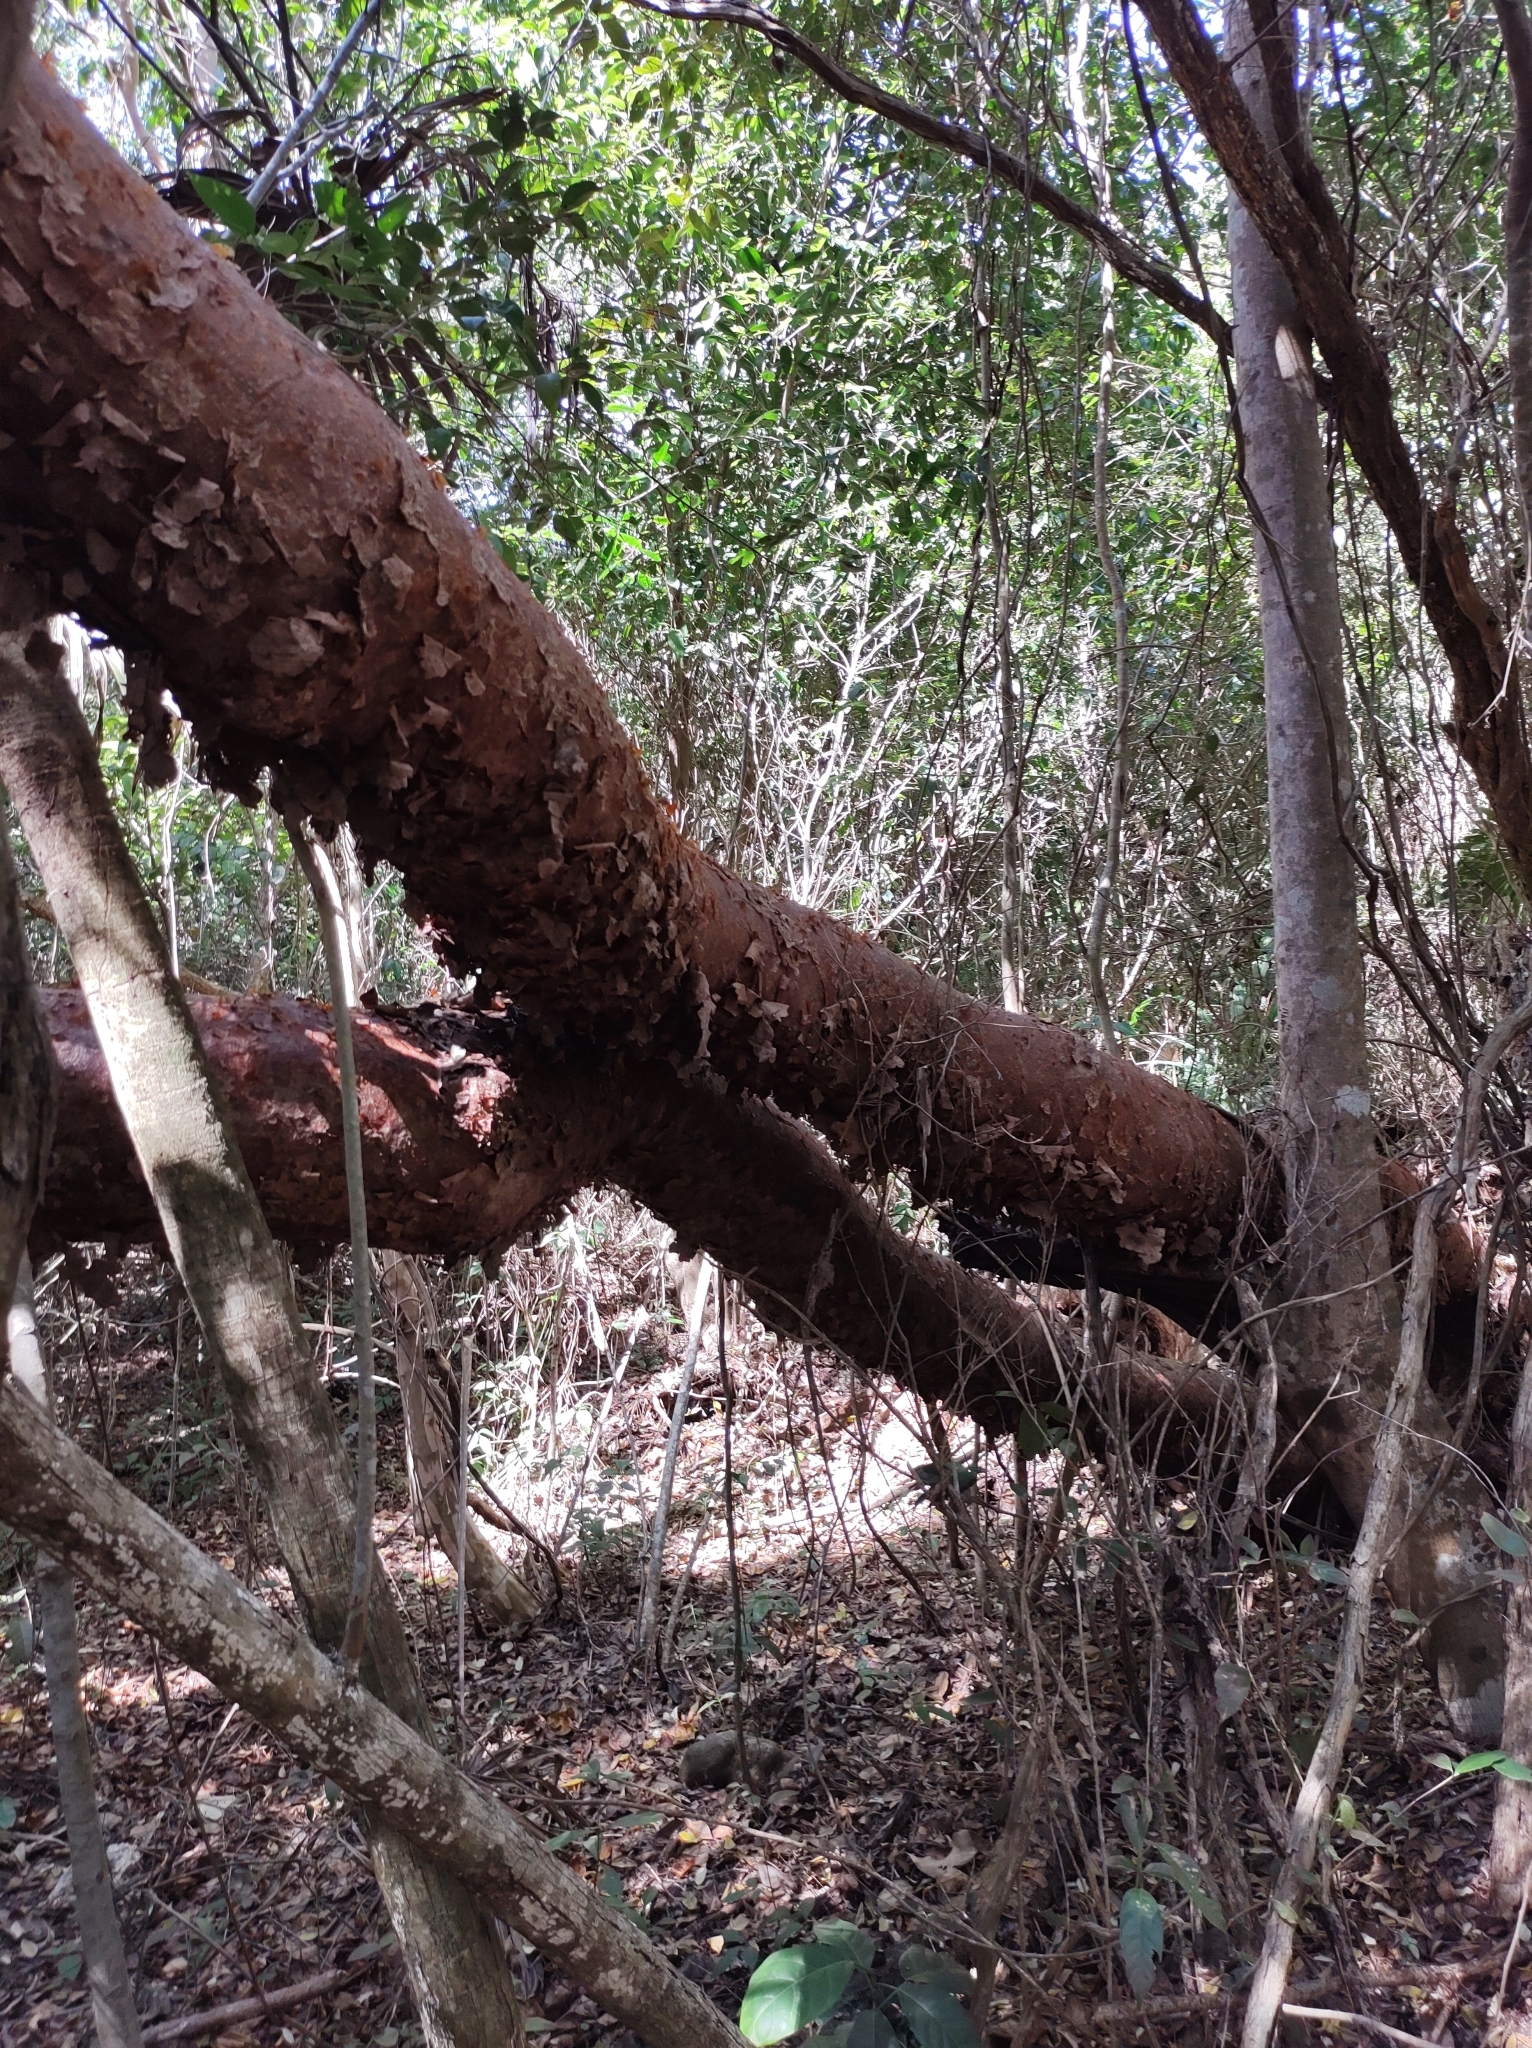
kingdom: Plantae
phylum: Tracheophyta
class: Magnoliopsida
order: Sapindales
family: Burseraceae
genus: Bursera
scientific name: Bursera simaruba
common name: Turpentine tree
